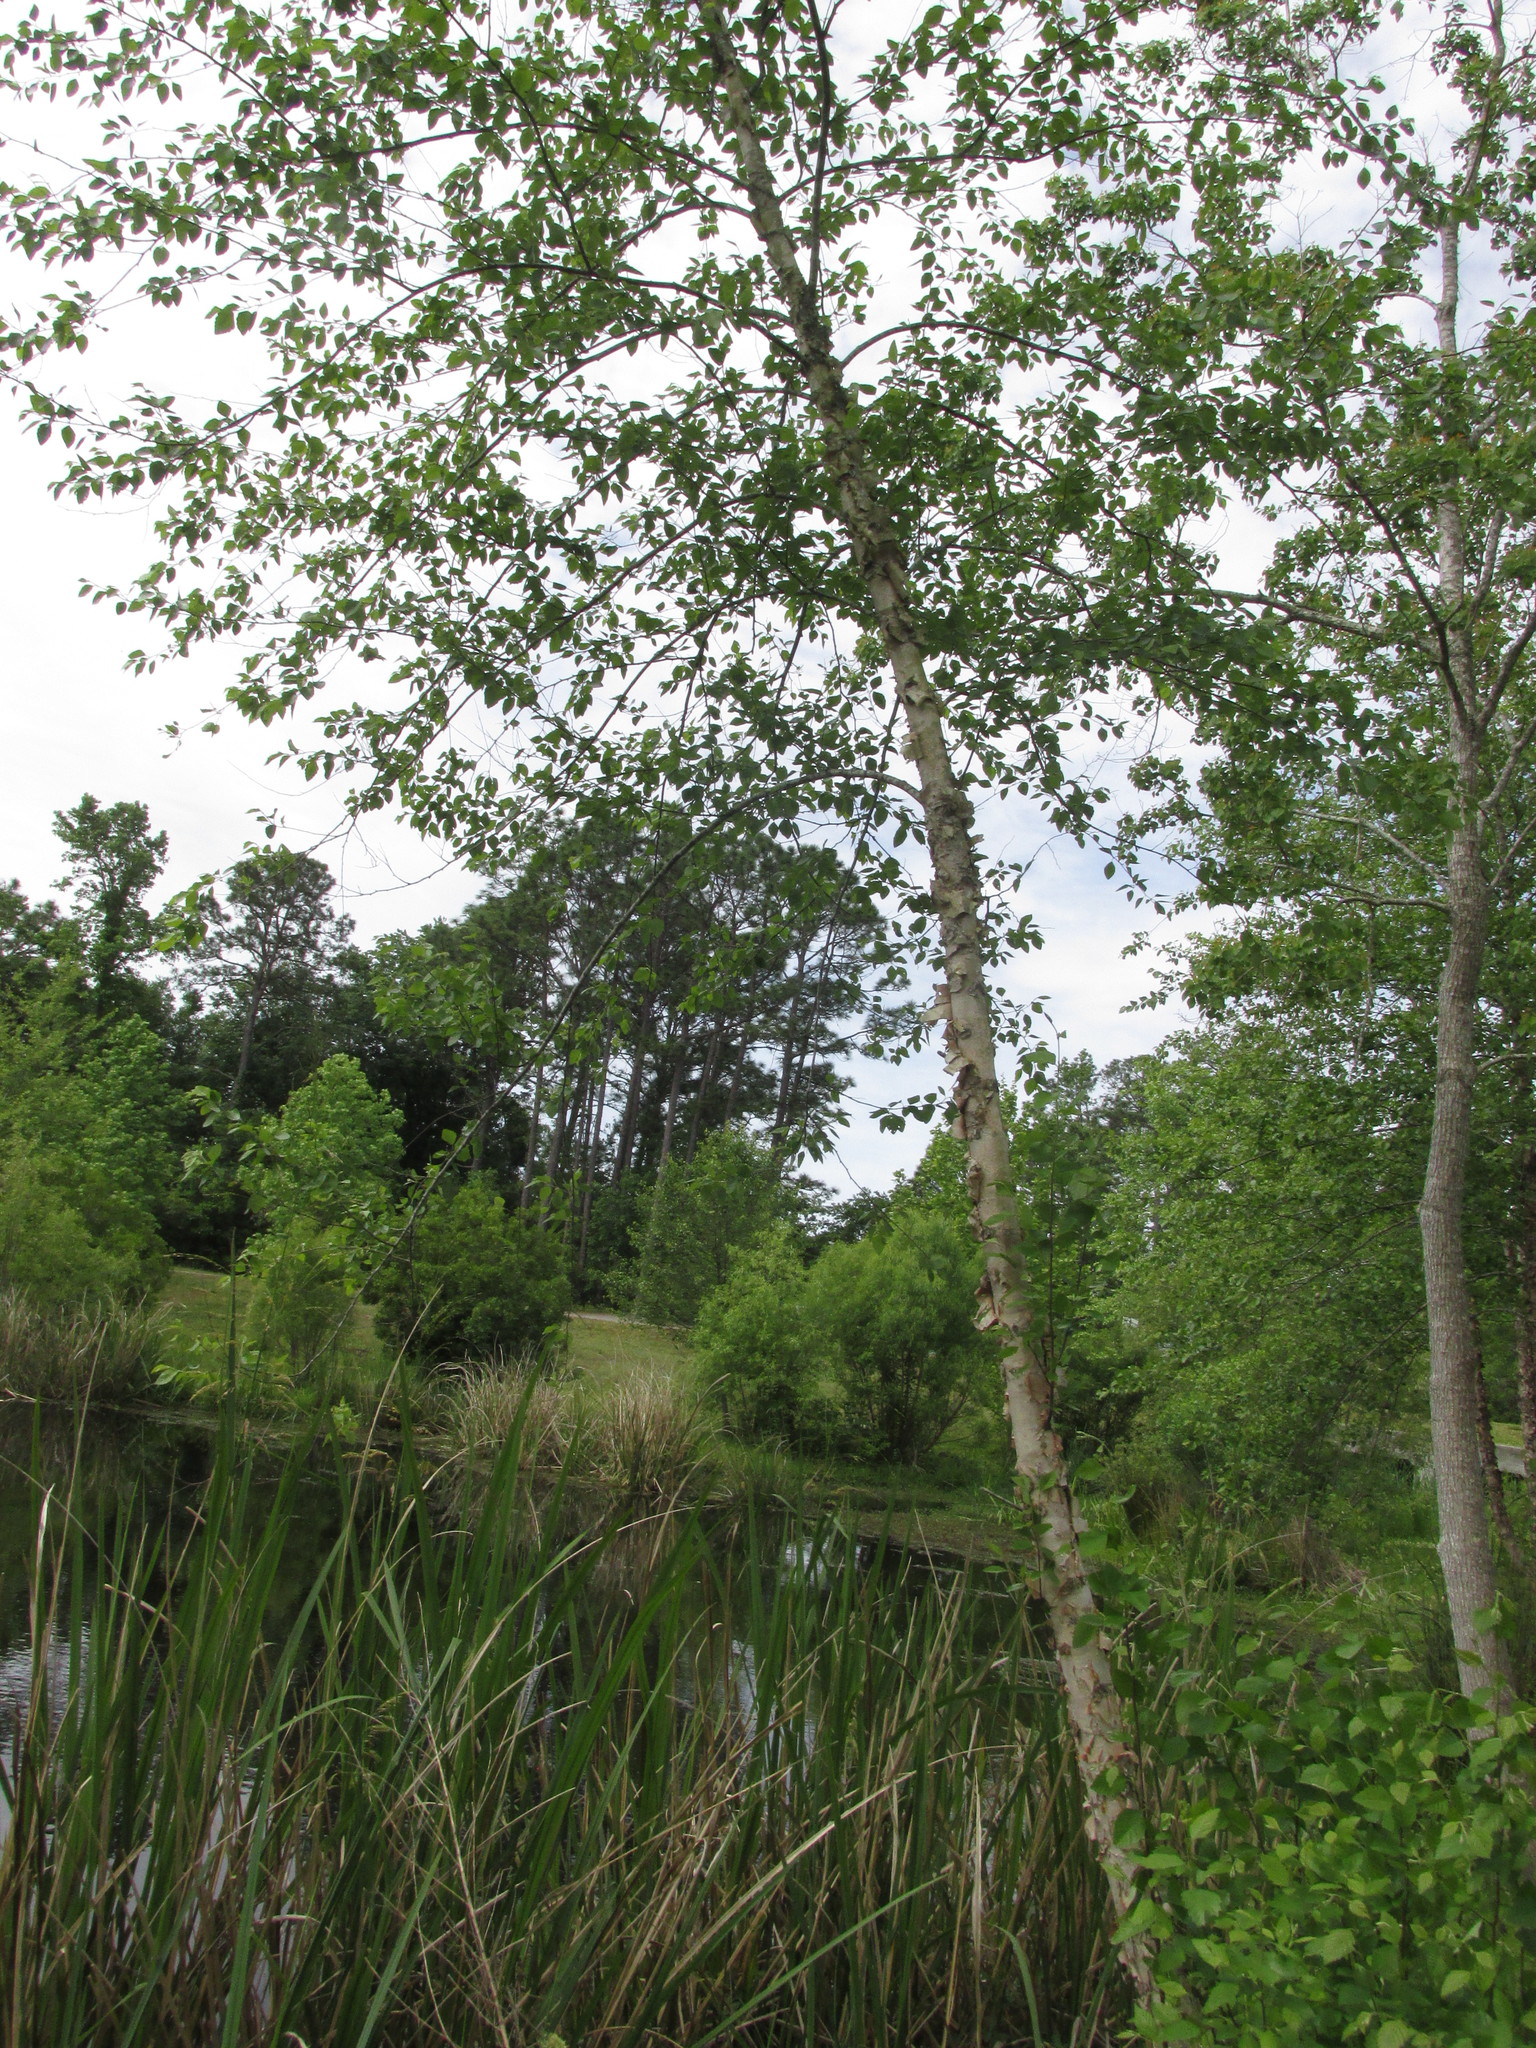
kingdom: Plantae
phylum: Tracheophyta
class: Magnoliopsida
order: Fagales
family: Betulaceae
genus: Betula
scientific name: Betula nigra
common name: Black birch
